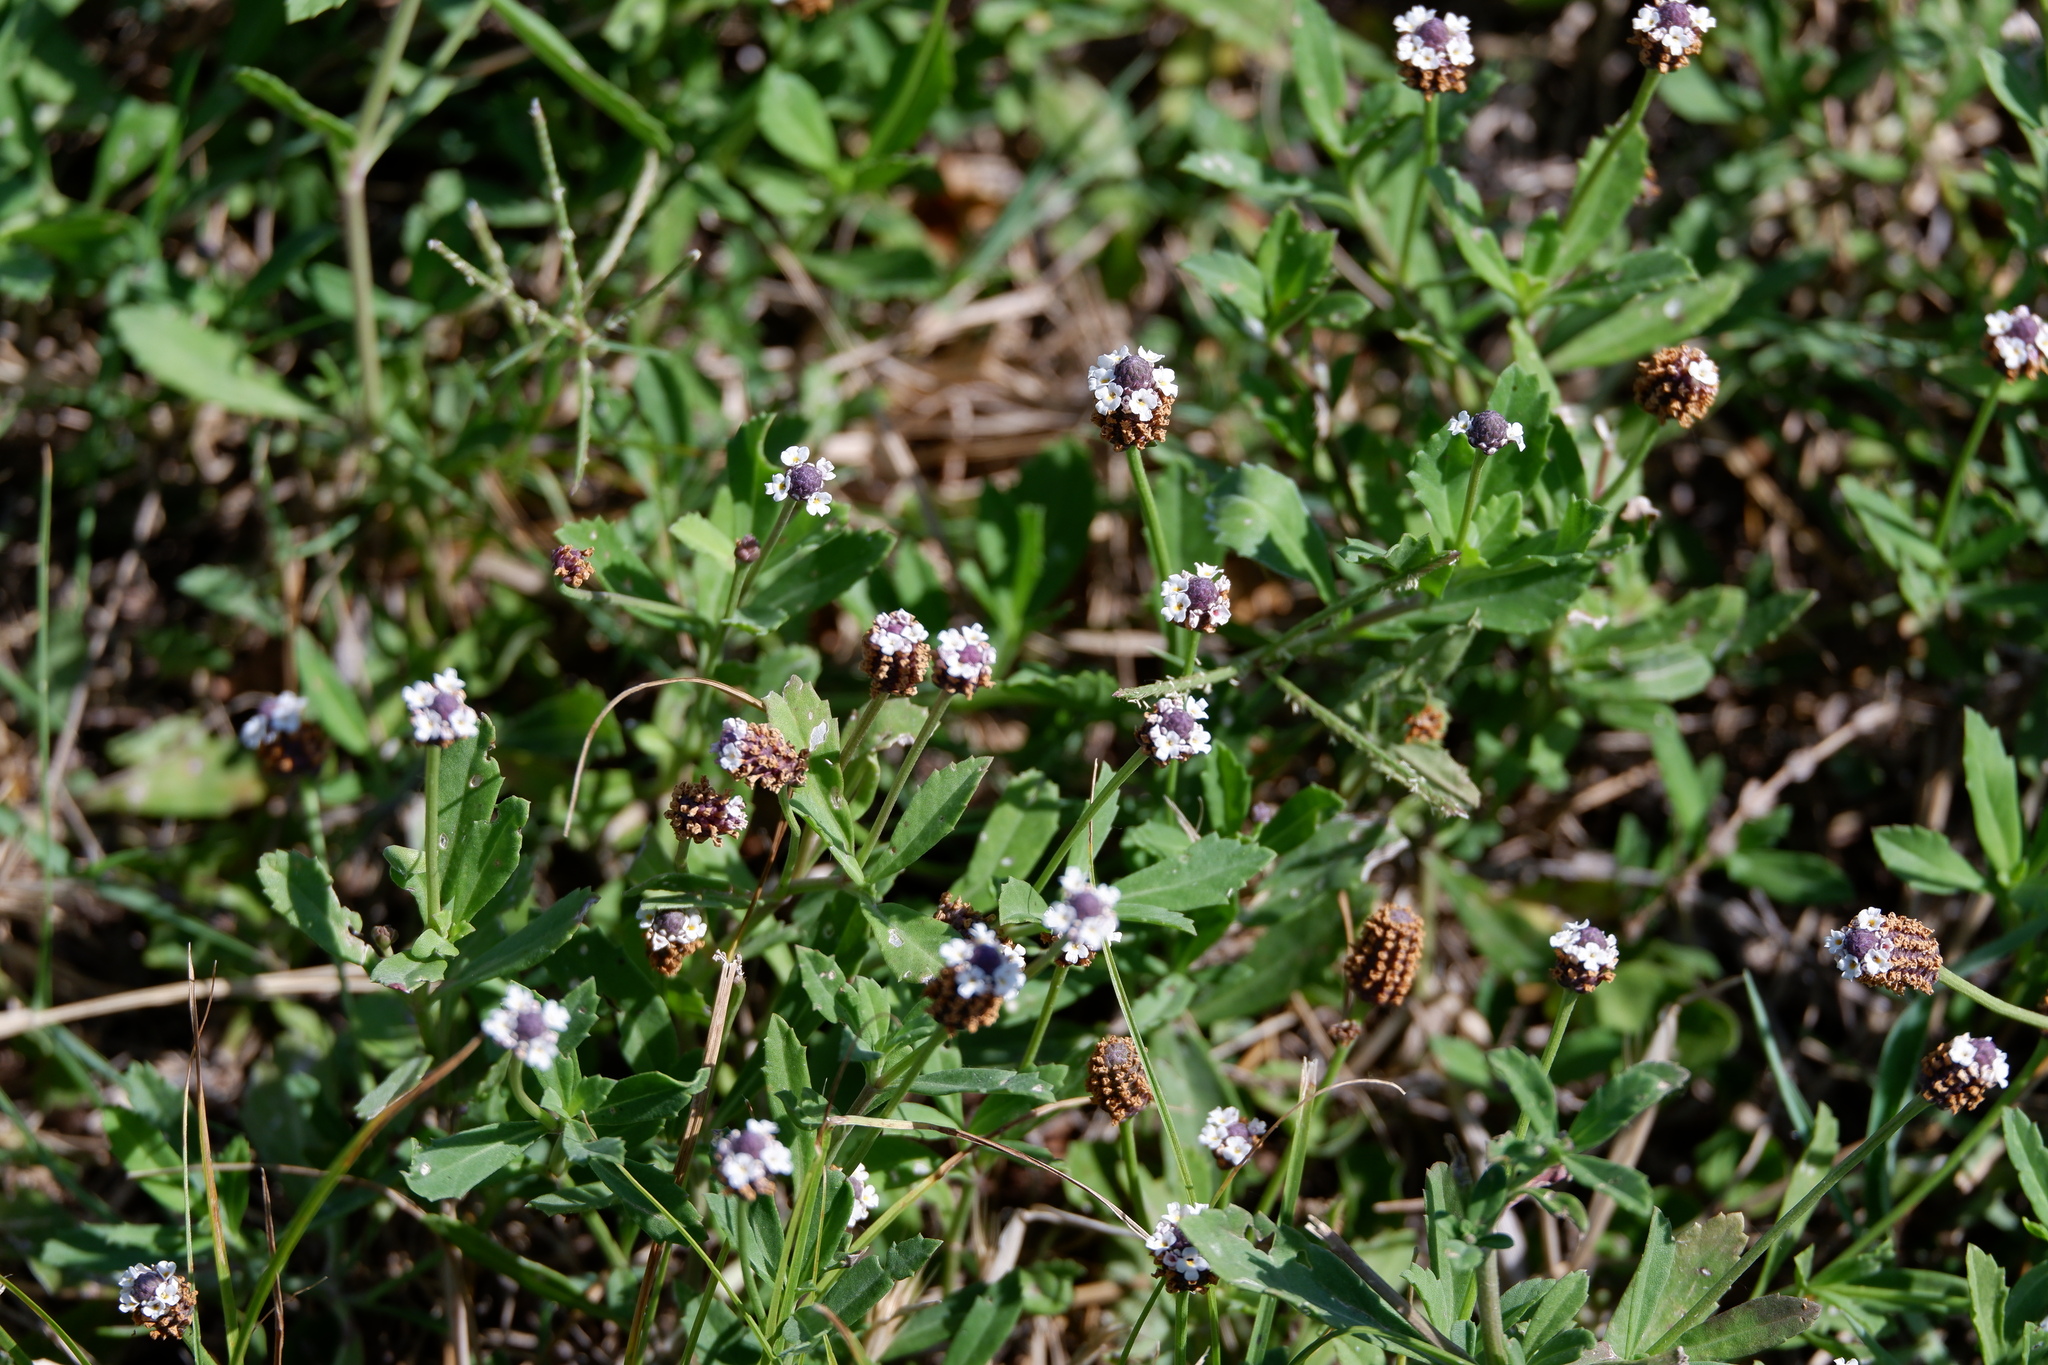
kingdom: Plantae
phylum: Tracheophyta
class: Magnoliopsida
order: Lamiales
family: Verbenaceae
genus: Phyla
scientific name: Phyla nodiflora
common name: Frogfruit
